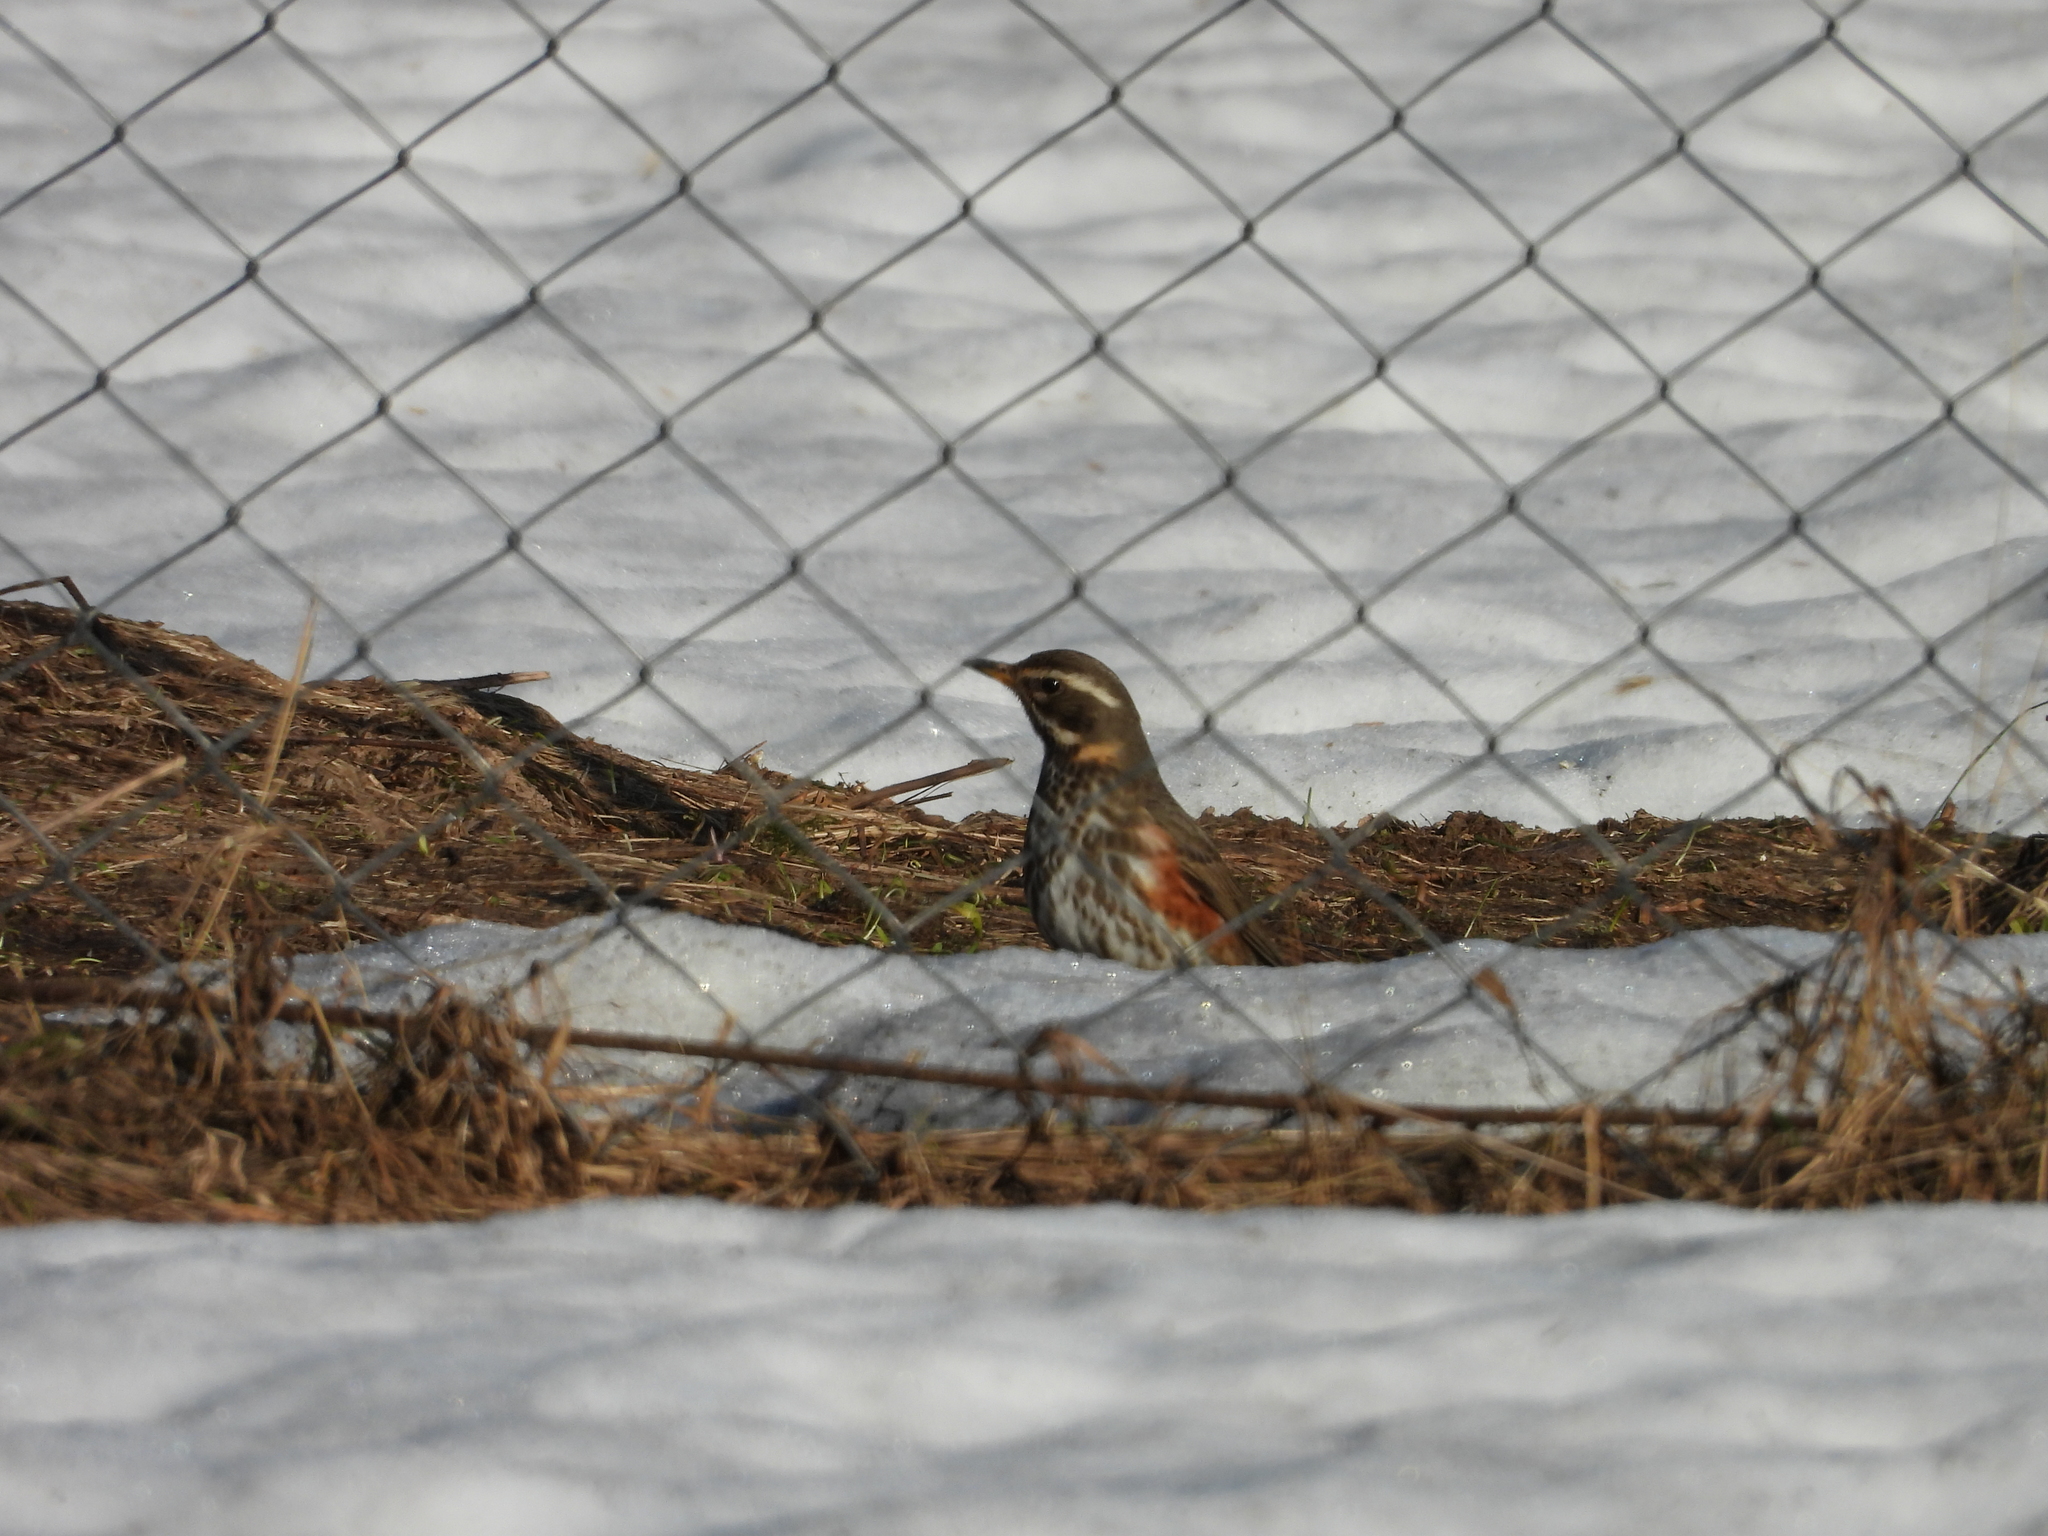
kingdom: Animalia
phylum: Chordata
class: Aves
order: Passeriformes
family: Turdidae
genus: Turdus
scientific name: Turdus iliacus
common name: Redwing
